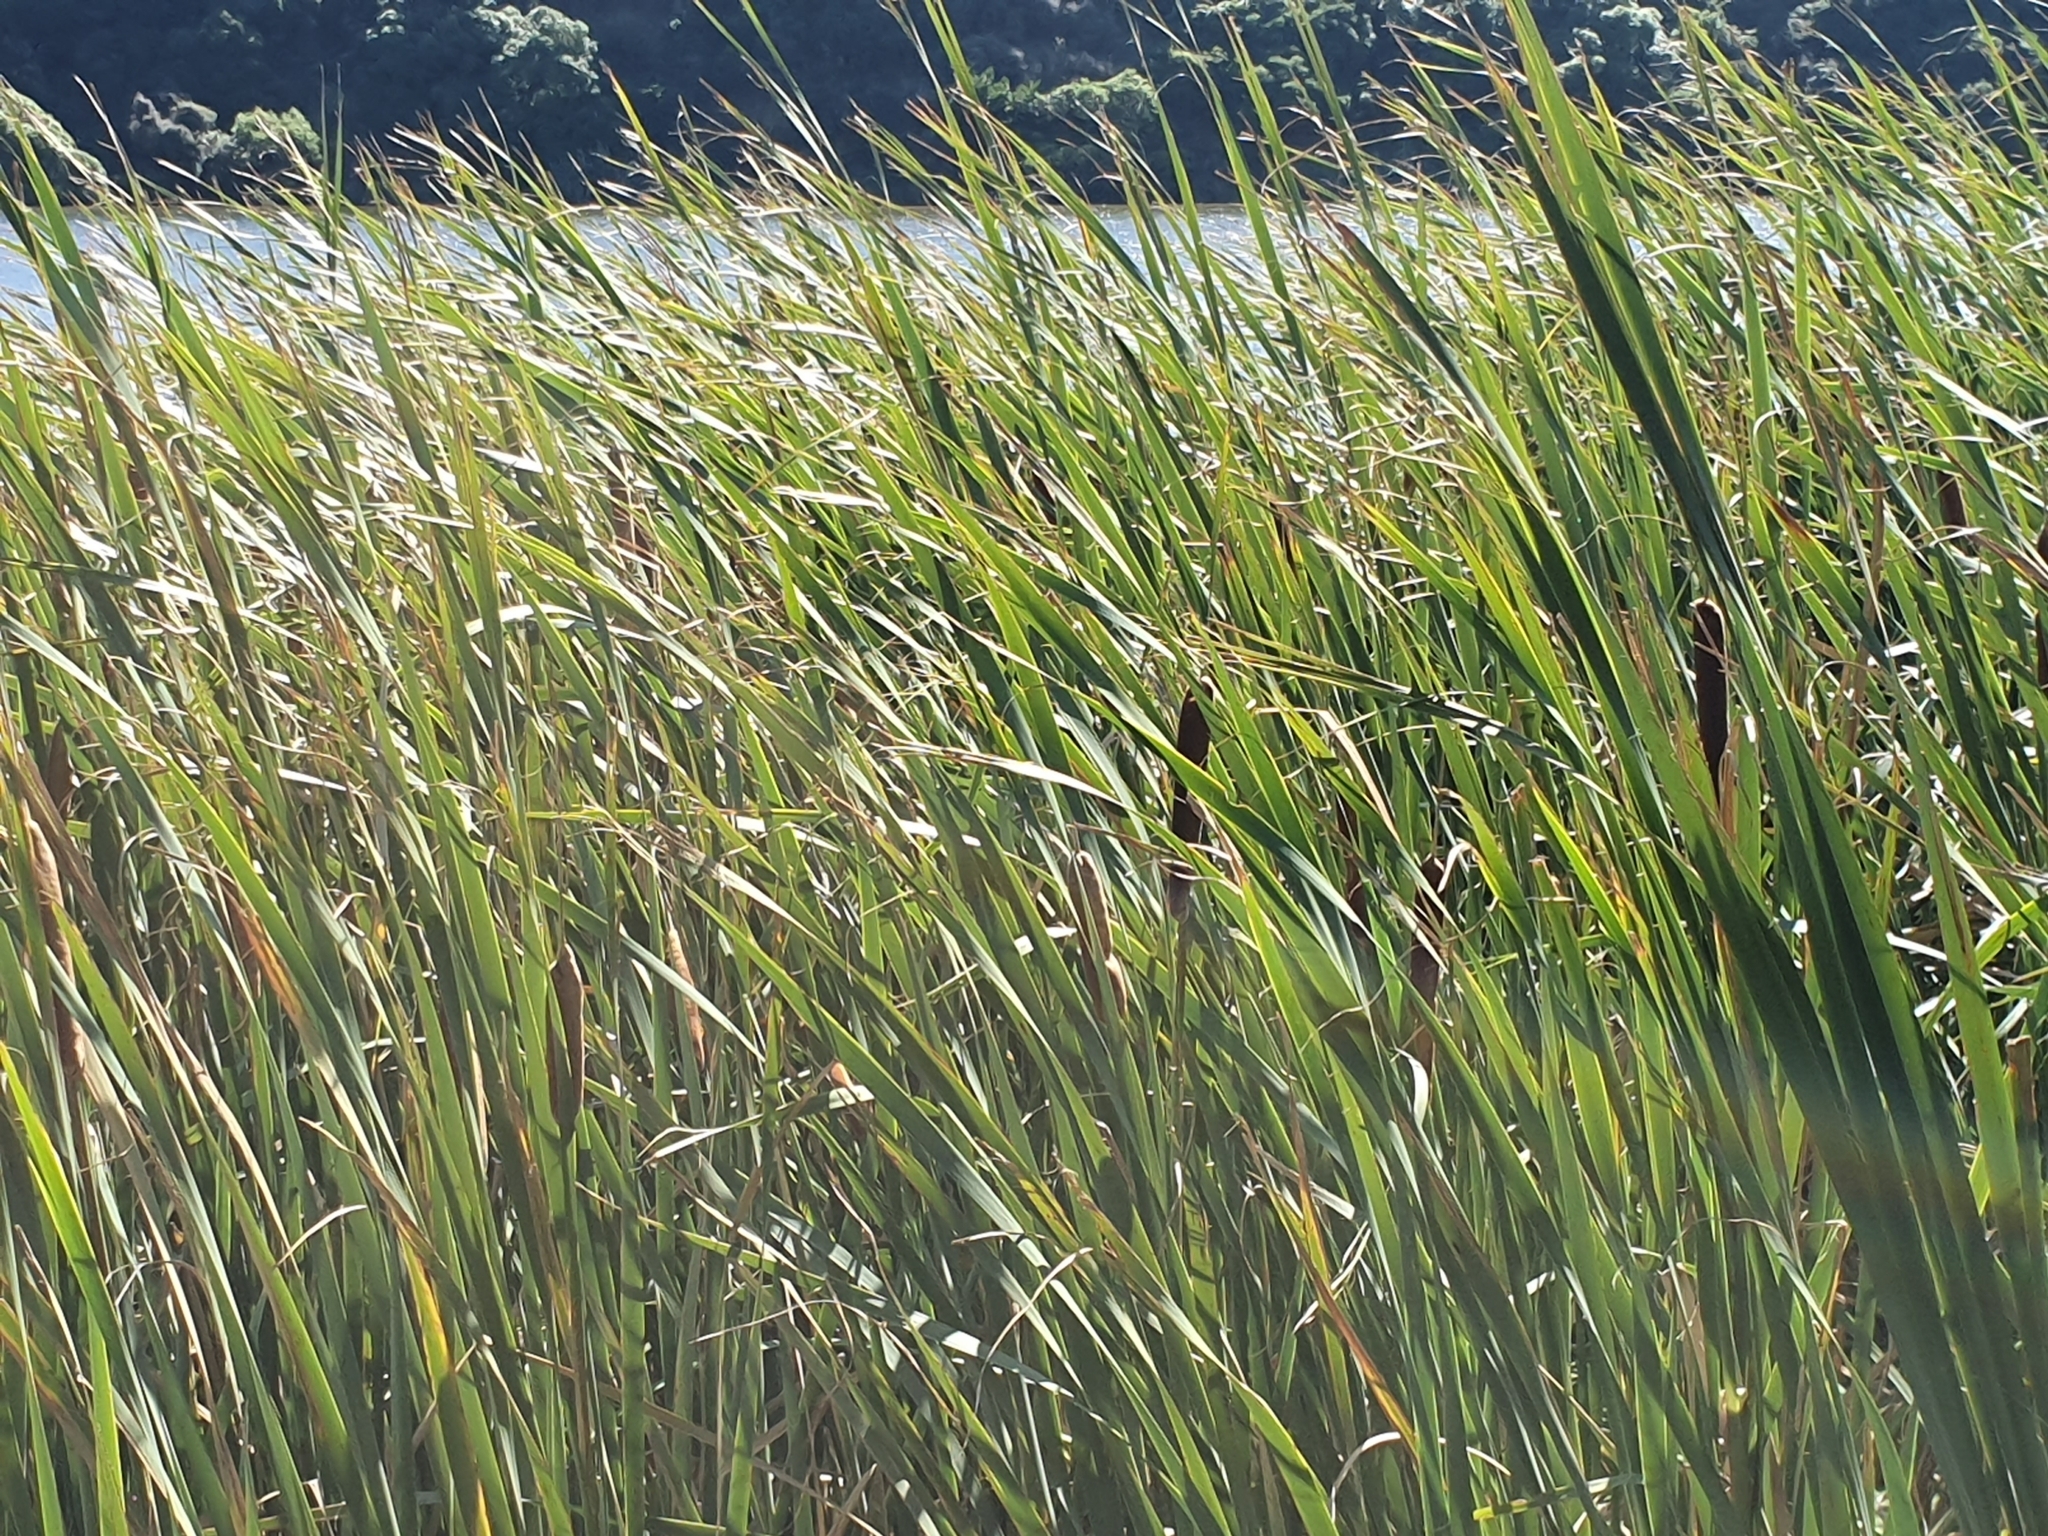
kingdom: Plantae
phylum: Tracheophyta
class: Liliopsida
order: Poales
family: Typhaceae
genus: Typha
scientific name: Typha orientalis
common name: Bullrush
